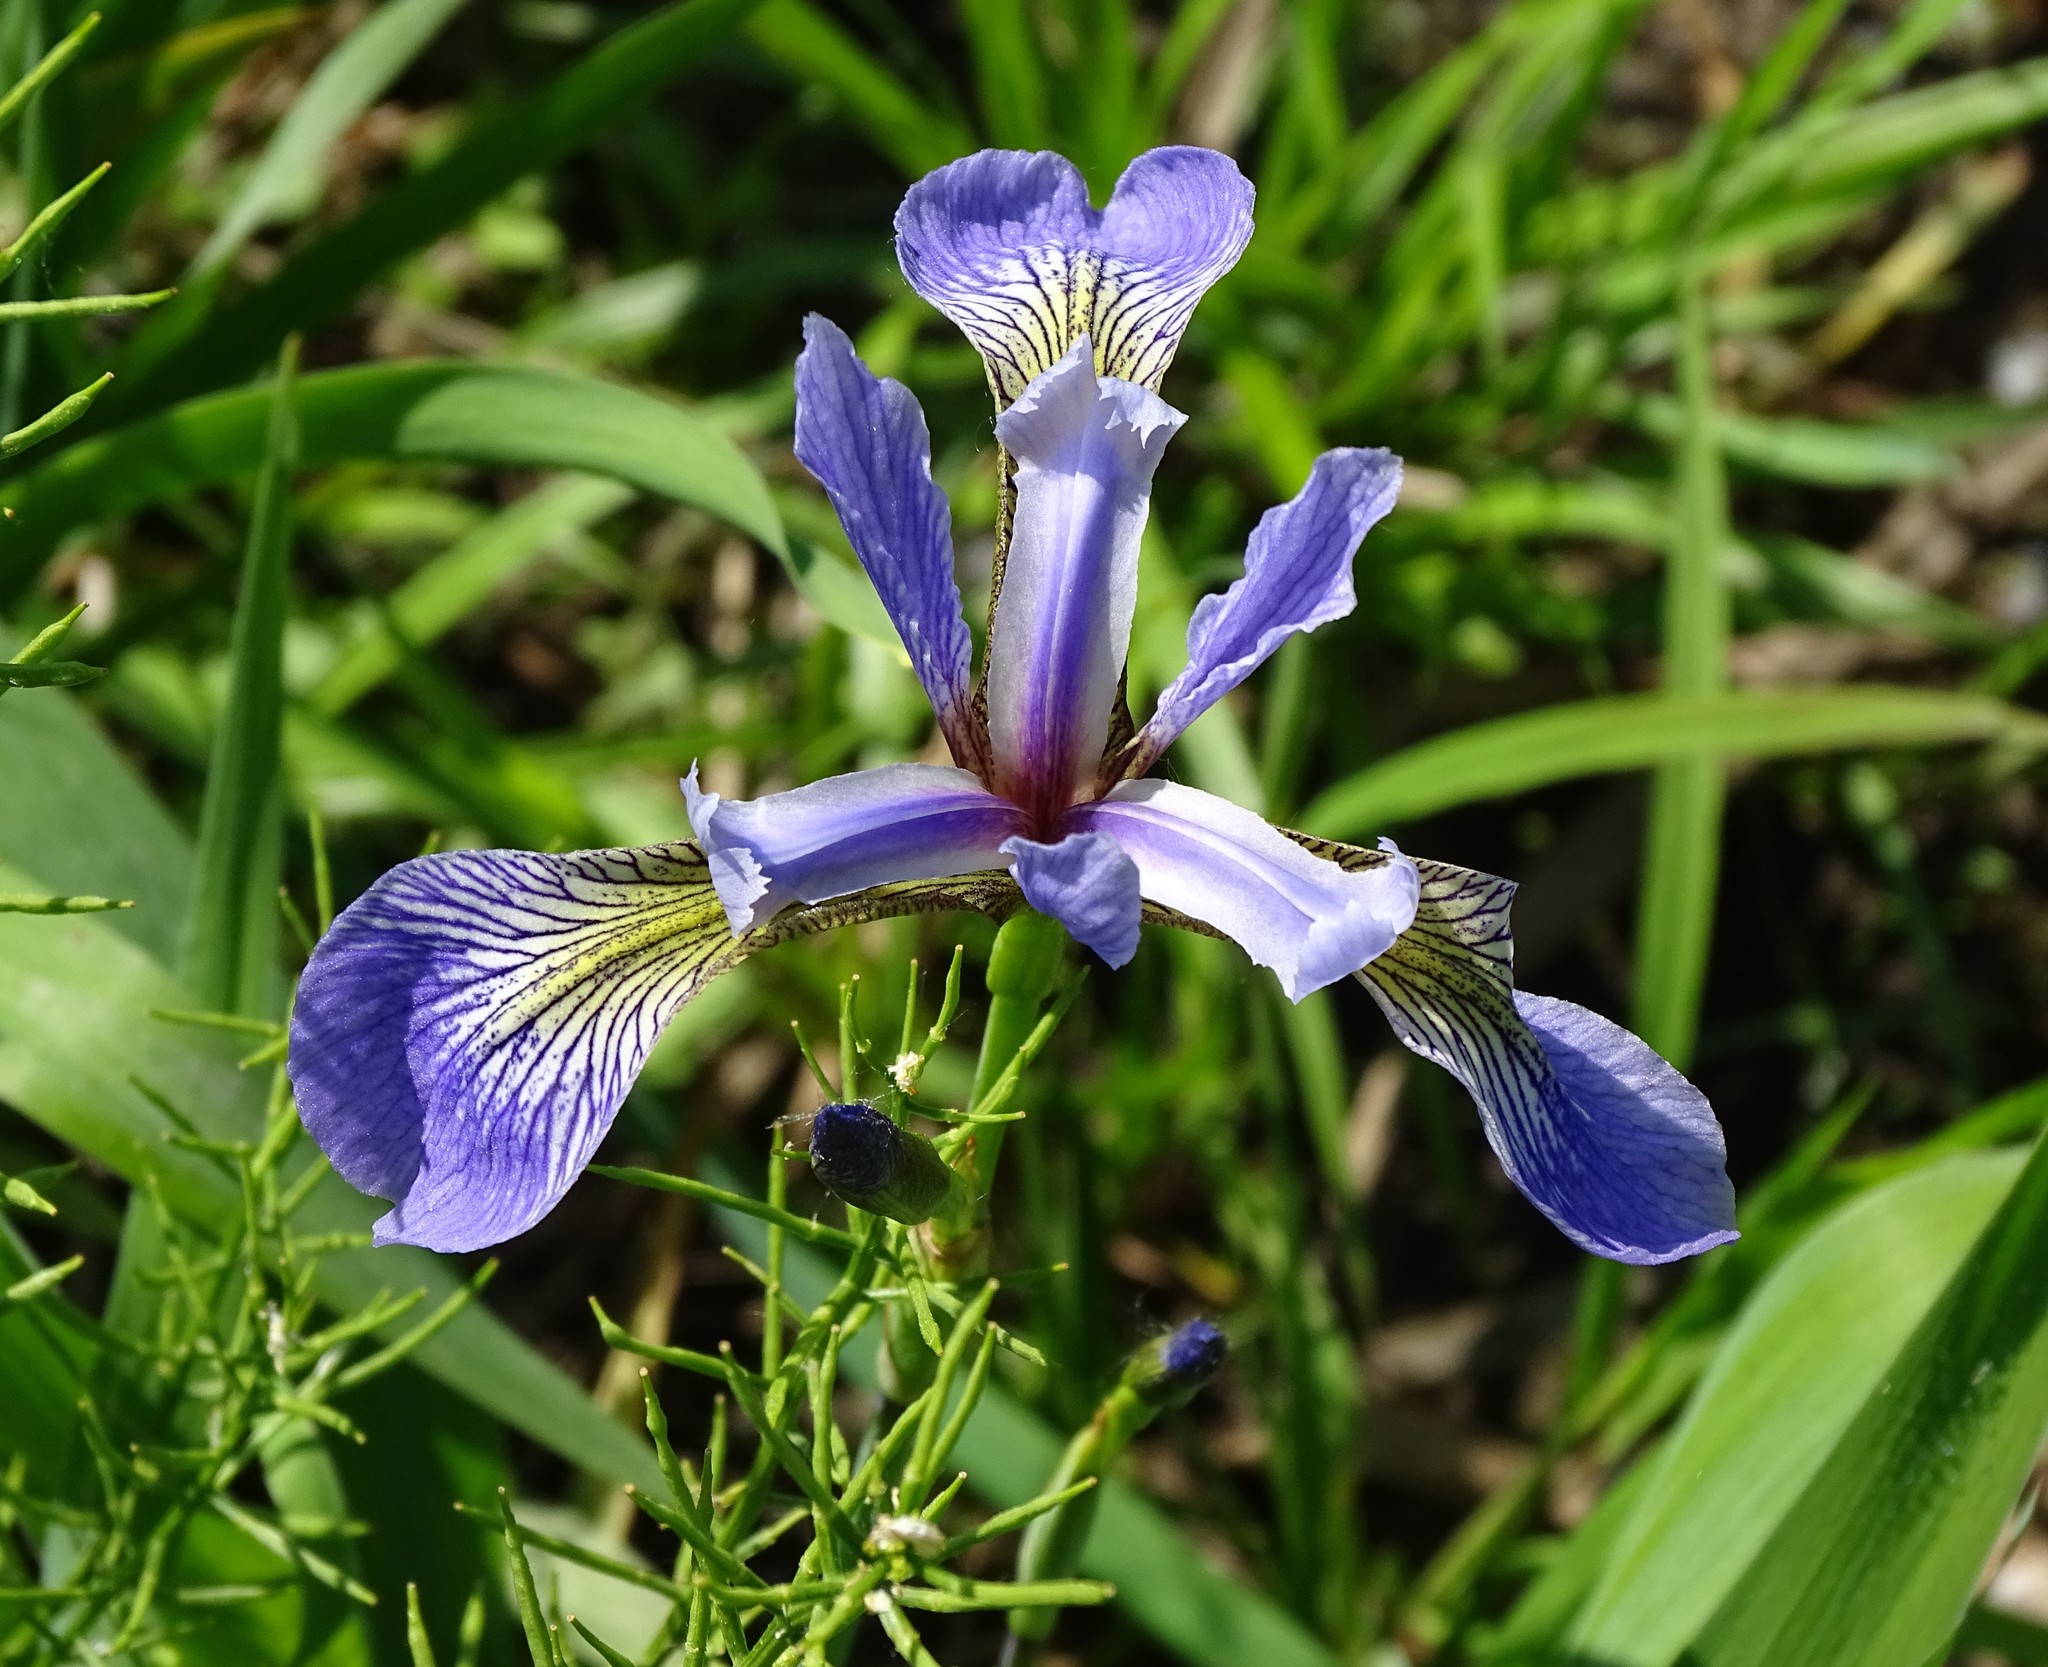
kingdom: Plantae
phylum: Tracheophyta
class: Liliopsida
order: Asparagales
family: Iridaceae
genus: Iris
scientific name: Iris versicolor
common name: Purple iris
